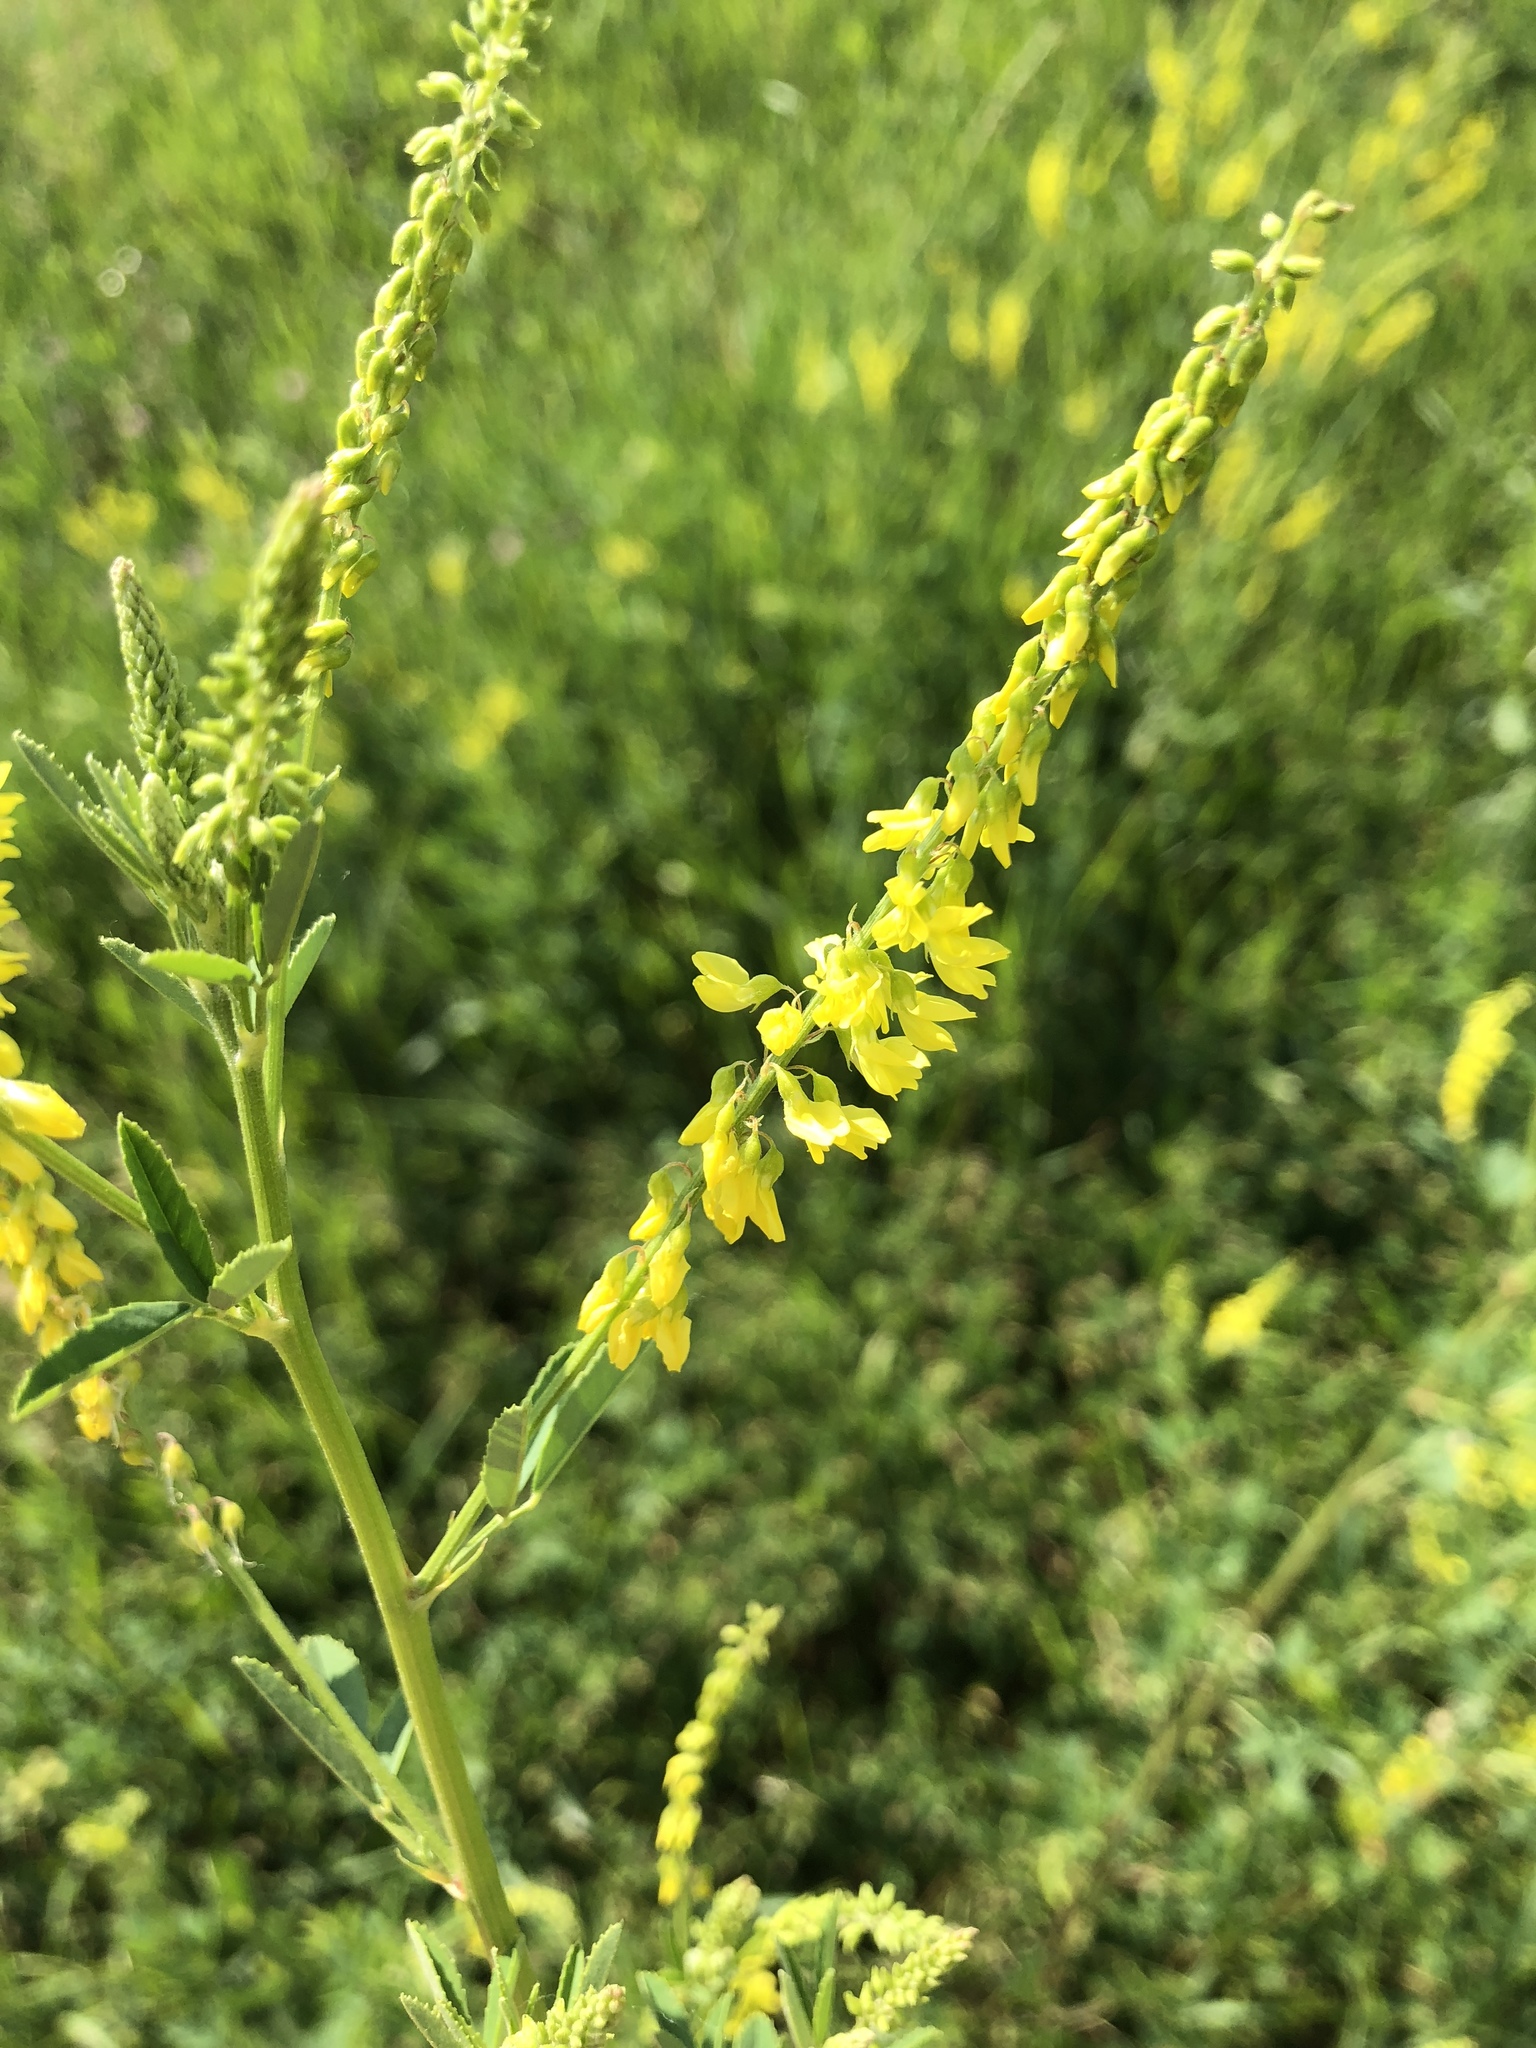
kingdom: Plantae
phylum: Tracheophyta
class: Magnoliopsida
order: Fabales
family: Fabaceae
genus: Melilotus
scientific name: Melilotus officinalis
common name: Sweetclover
